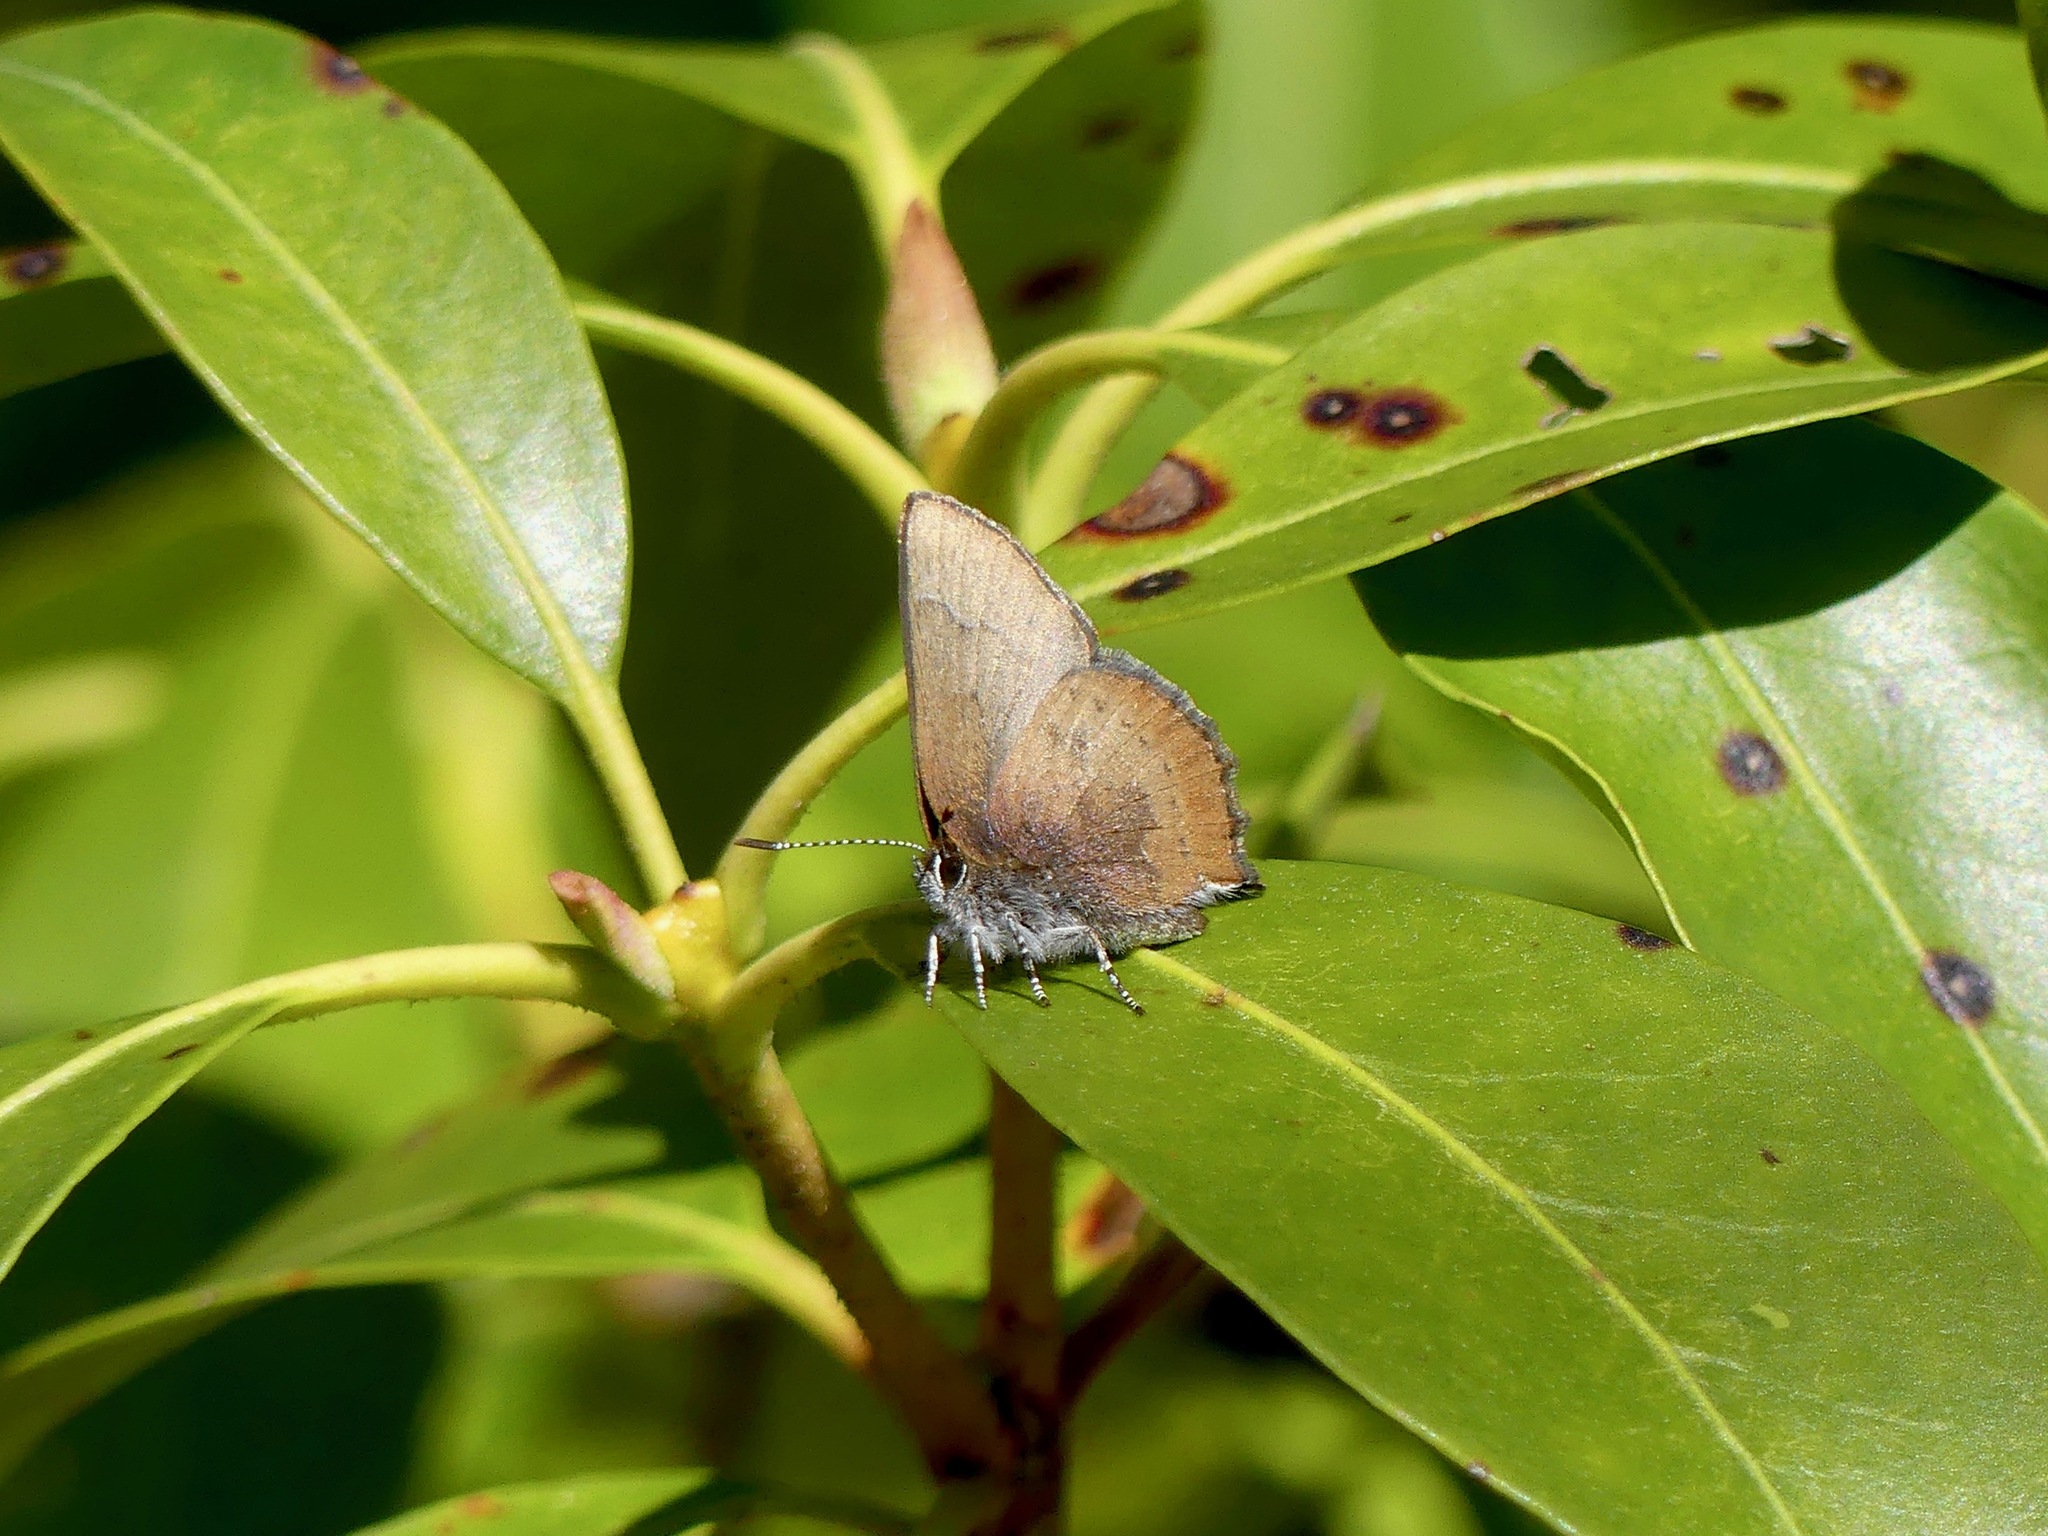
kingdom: Animalia
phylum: Arthropoda
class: Insecta
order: Lepidoptera
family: Lycaenidae
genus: Incisalia
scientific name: Incisalia irioides
